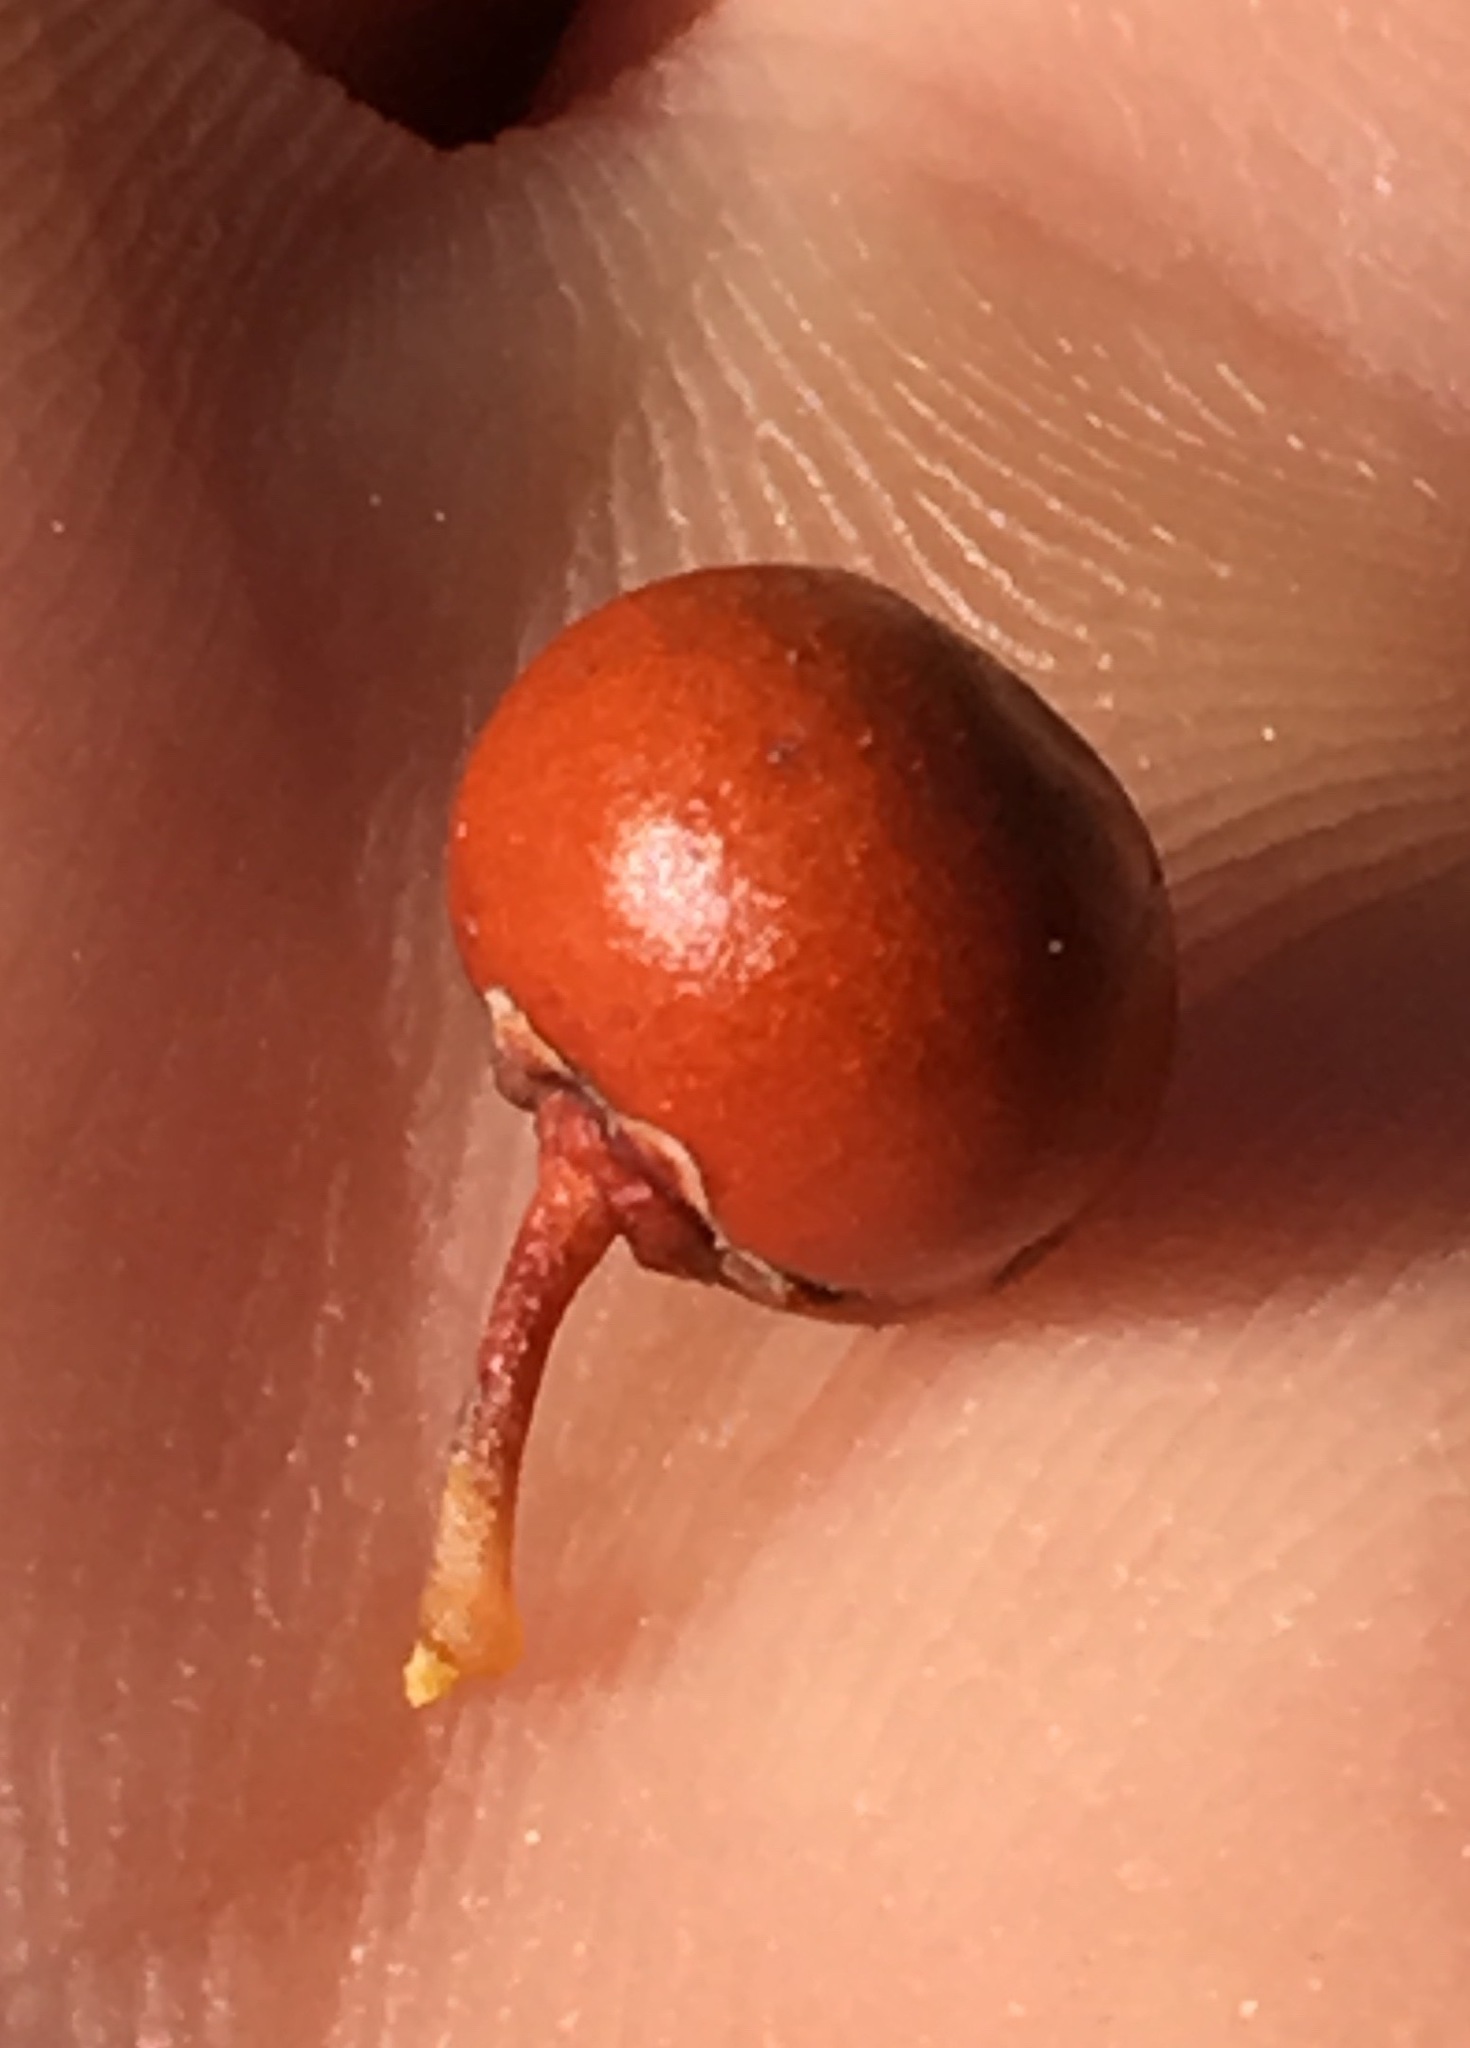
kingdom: Plantae
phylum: Tracheophyta
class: Magnoliopsida
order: Ericales
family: Ericaceae
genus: Arctostaphylos
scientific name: Arctostaphylos pungens
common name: Mexican manzanita
